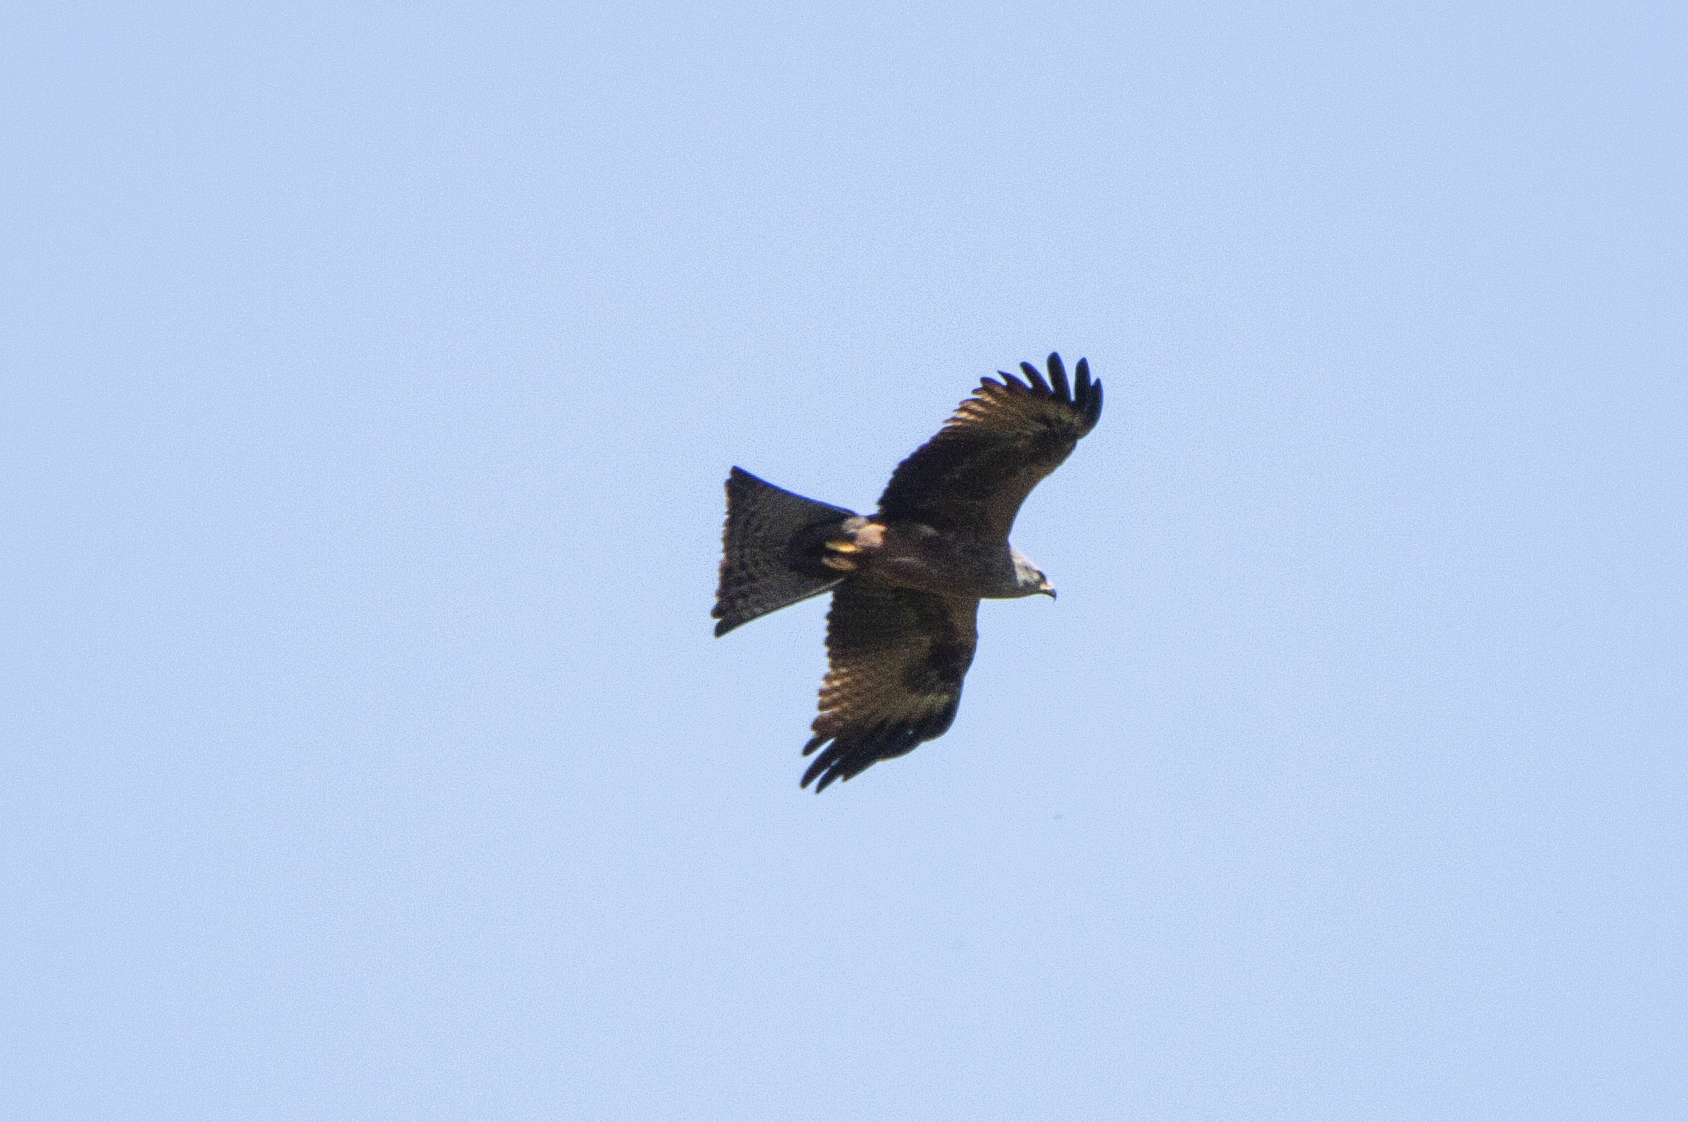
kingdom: Animalia
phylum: Chordata
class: Aves
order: Accipitriformes
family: Accipitridae
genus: Milvus
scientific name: Milvus migrans
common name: Black kite
